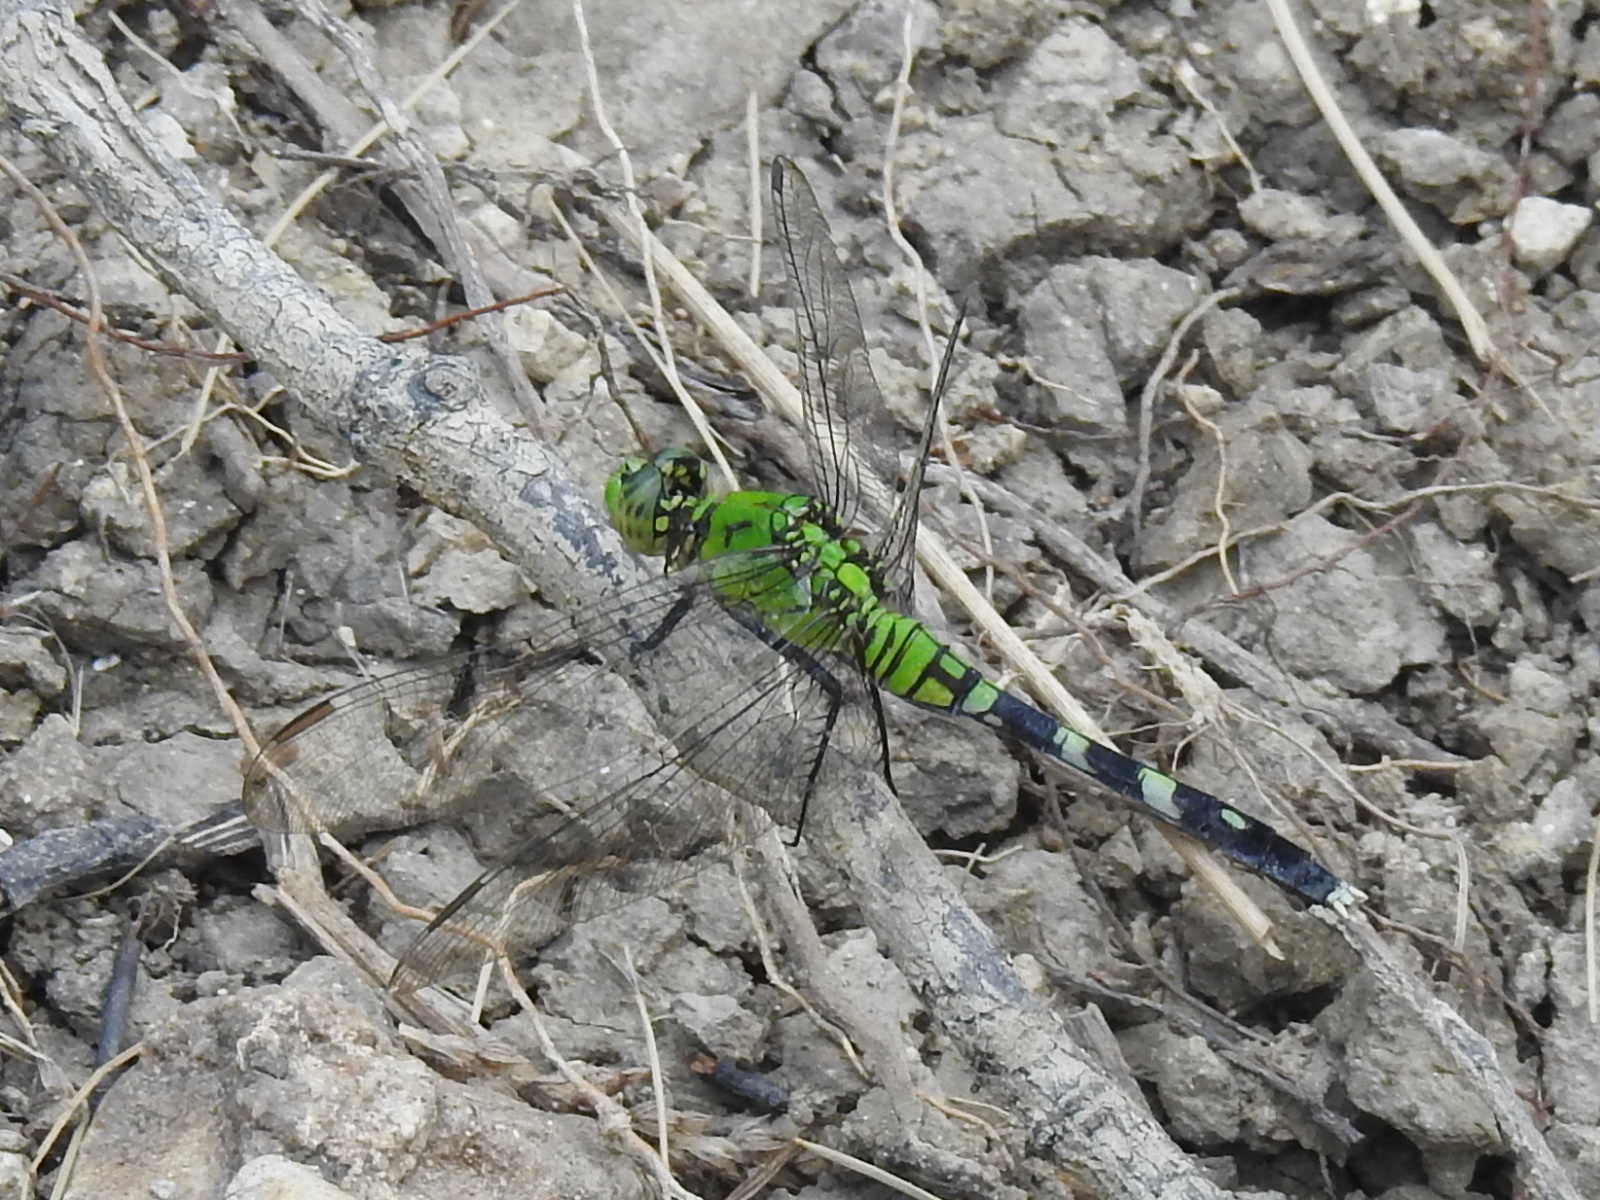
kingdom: Animalia
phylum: Arthropoda
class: Insecta
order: Odonata
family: Libellulidae
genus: Erythemis
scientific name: Erythemis simplicicollis
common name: Eastern pondhawk
